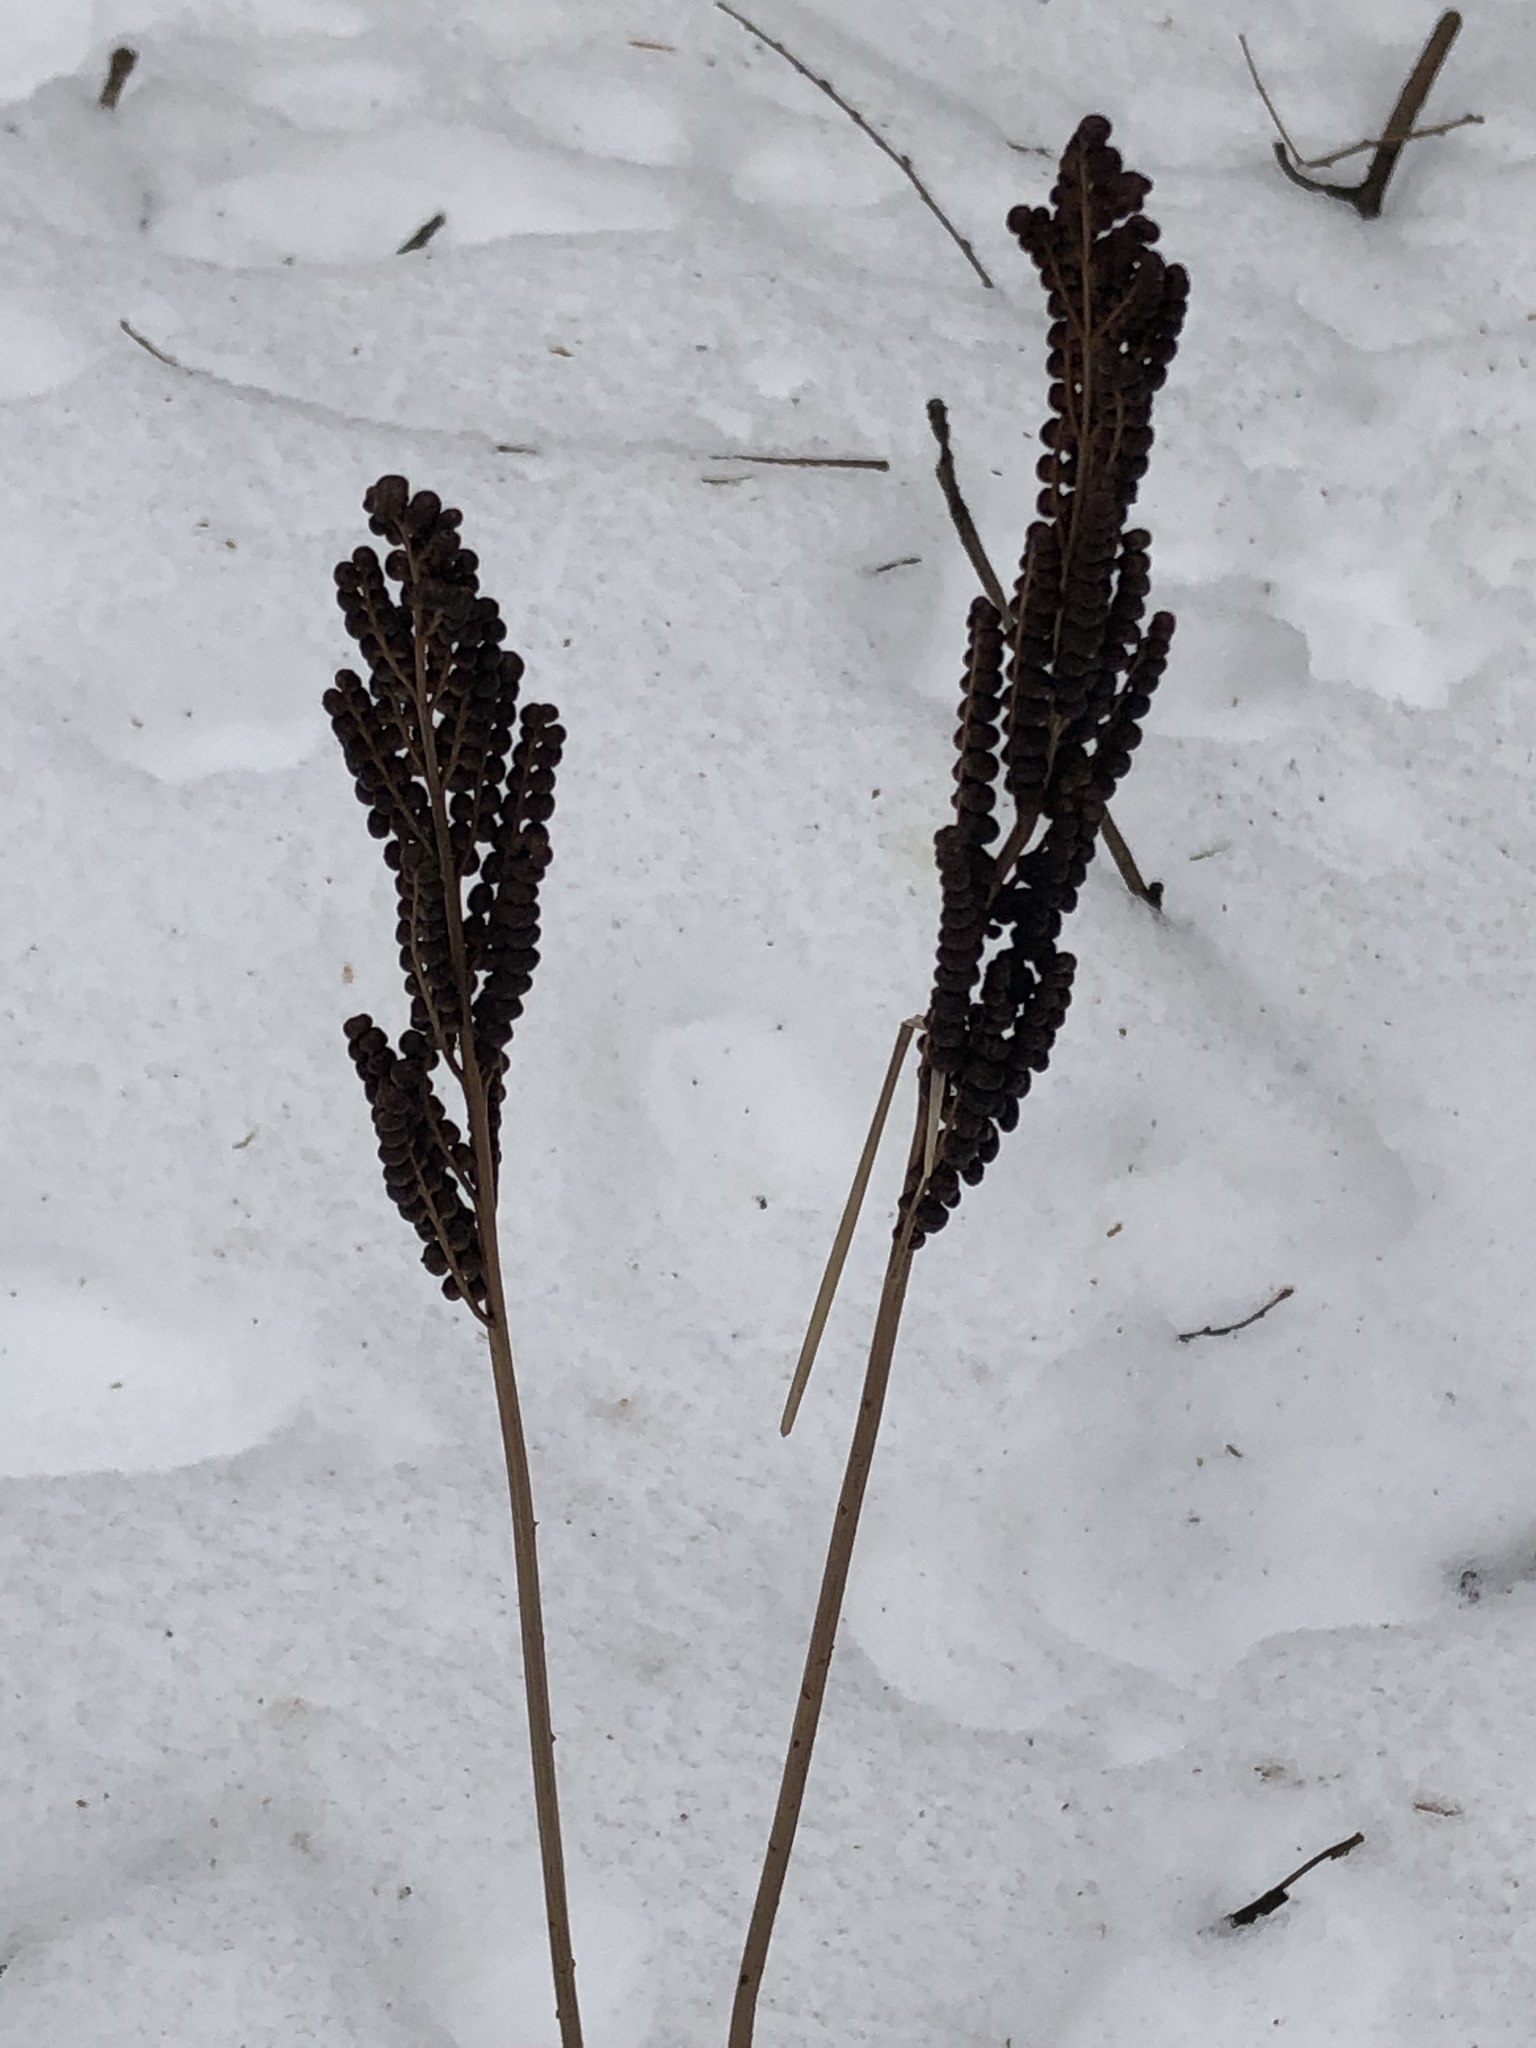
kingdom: Plantae
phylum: Tracheophyta
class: Polypodiopsida
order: Polypodiales
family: Onocleaceae
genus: Onoclea
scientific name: Onoclea sensibilis
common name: Sensitive fern
